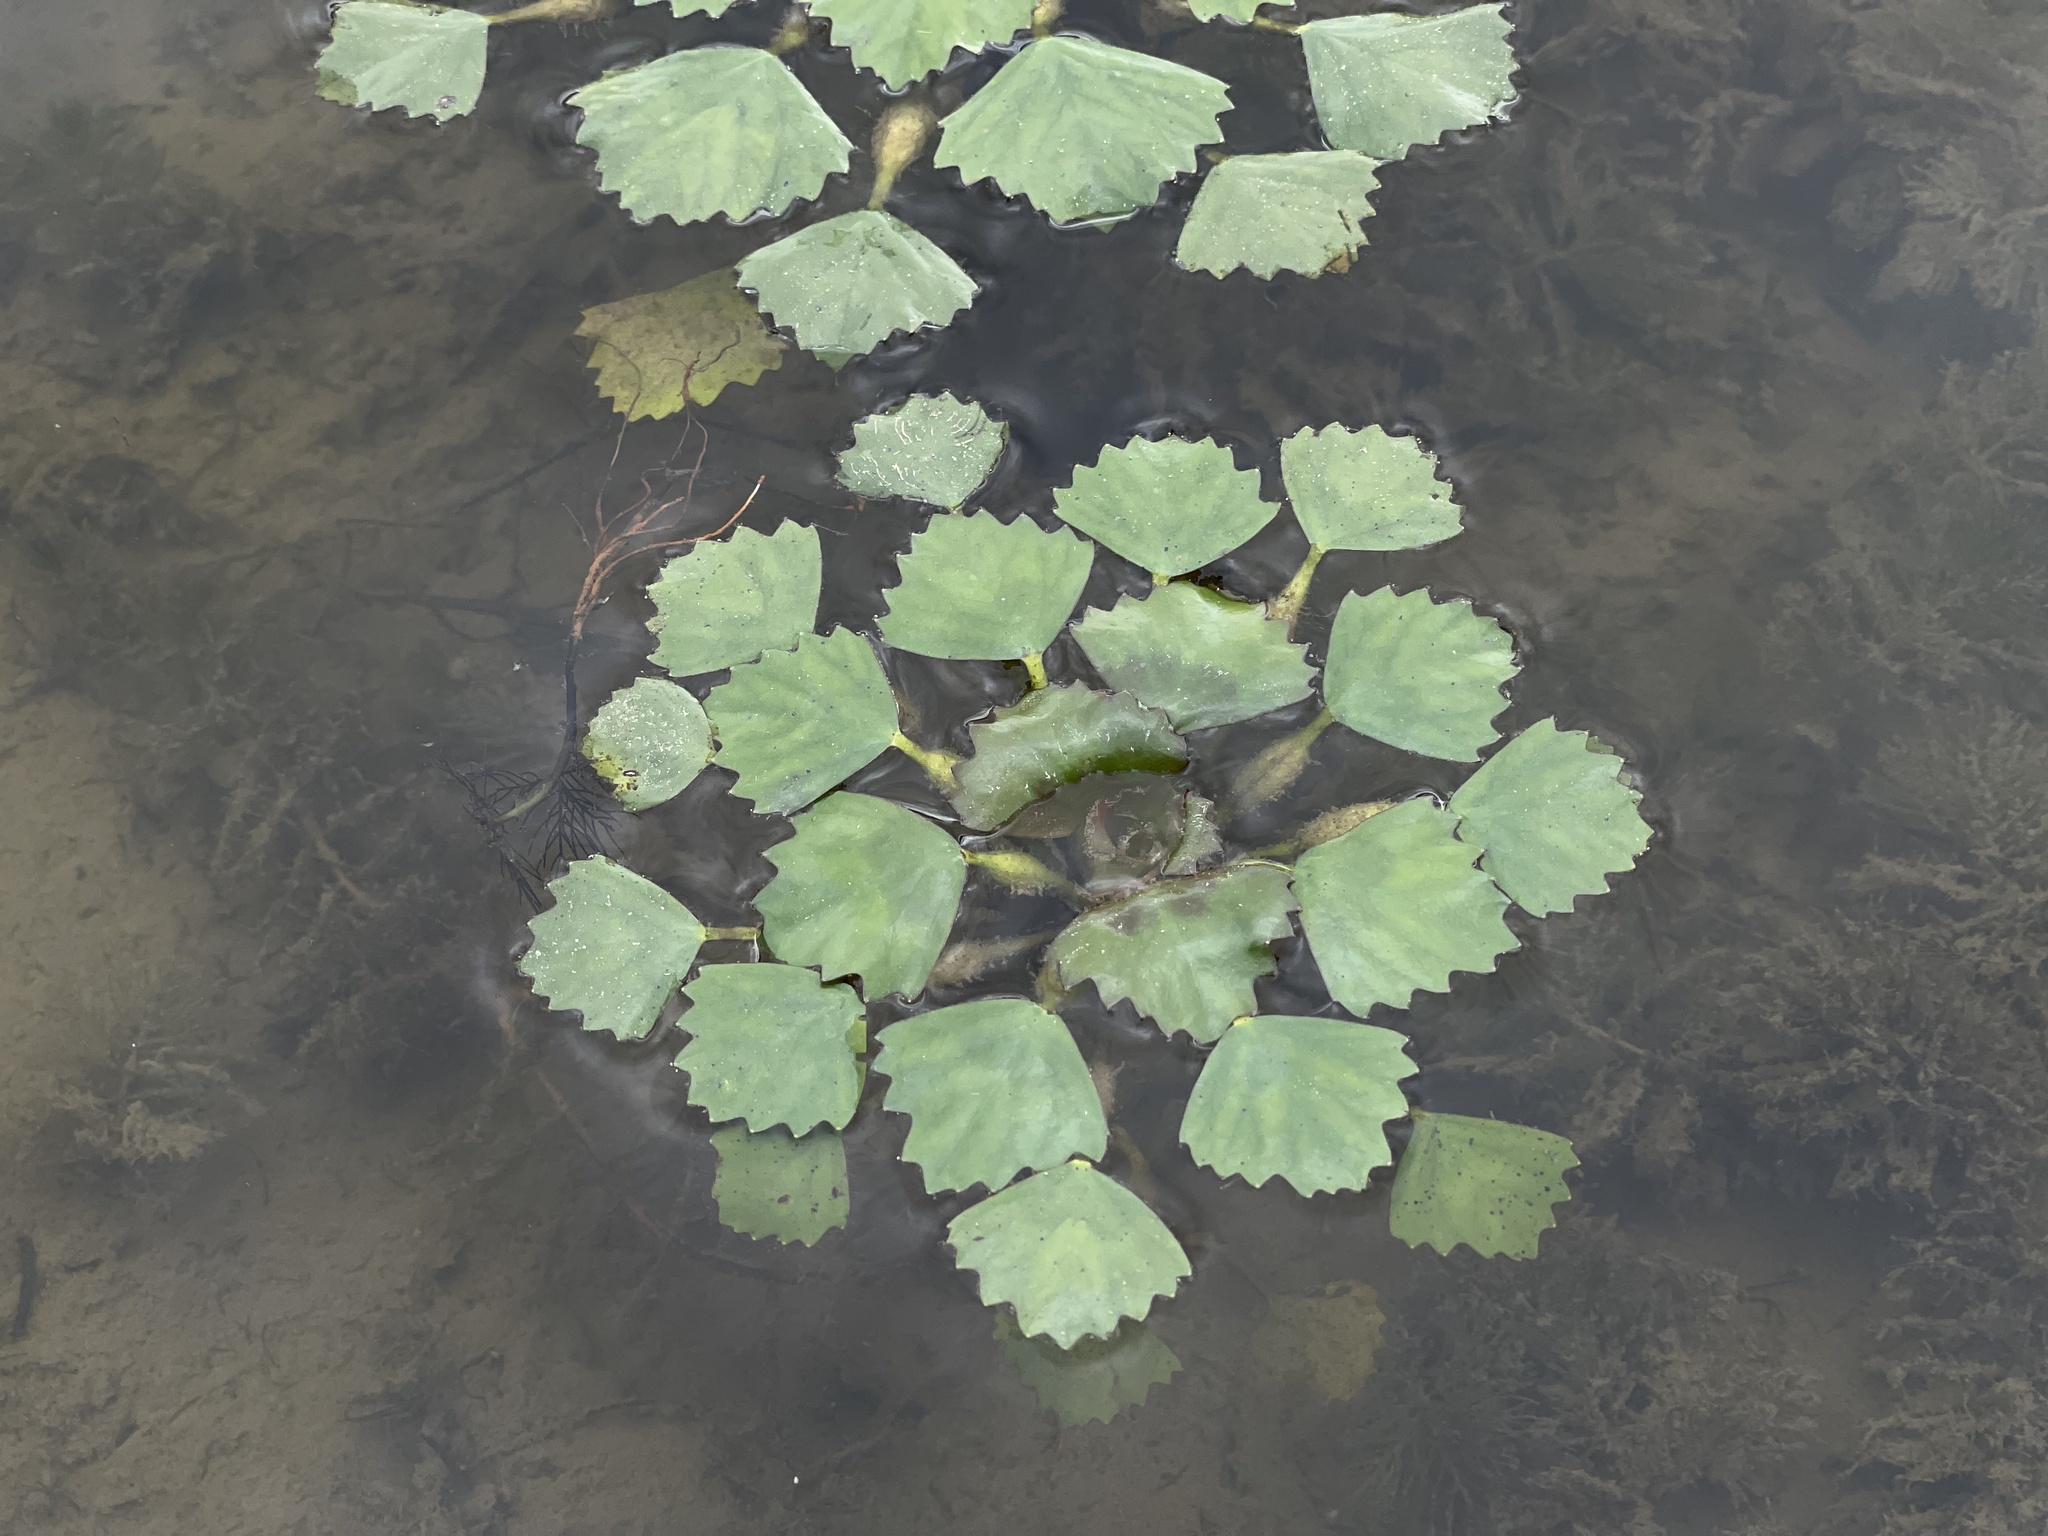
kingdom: Plantae
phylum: Tracheophyta
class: Magnoliopsida
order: Myrtales
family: Lythraceae
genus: Trapa
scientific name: Trapa natans
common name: Water chestnut
